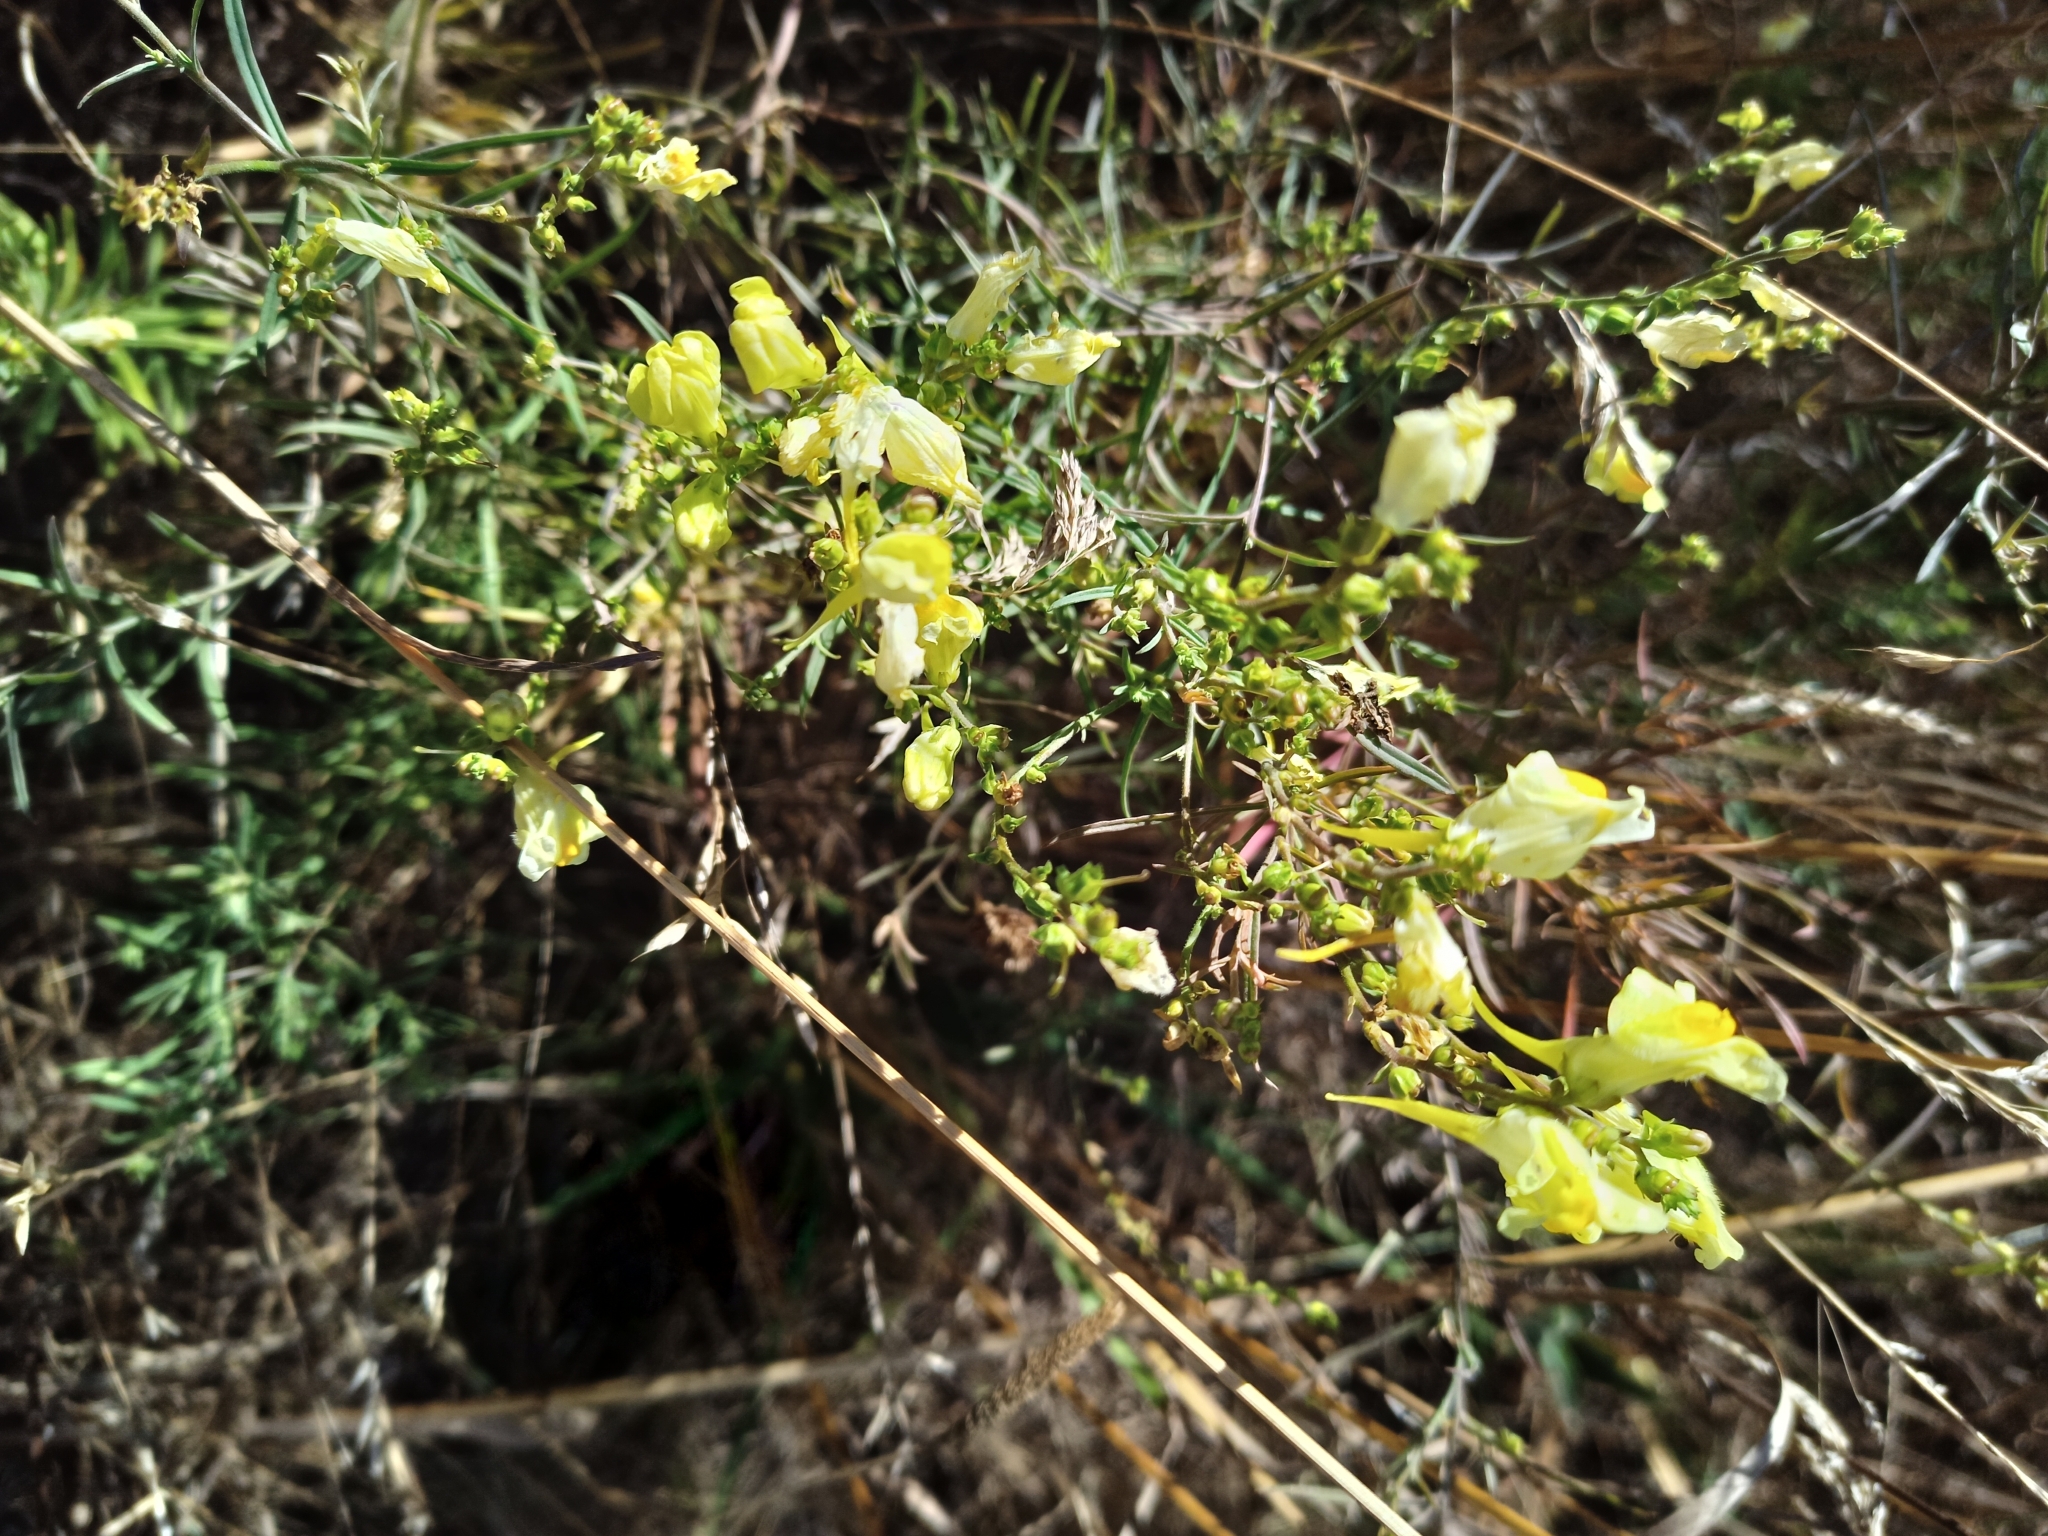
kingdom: Plantae
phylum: Tracheophyta
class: Magnoliopsida
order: Lamiales
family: Plantaginaceae
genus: Linaria
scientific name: Linaria vulgaris
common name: Butter and eggs
